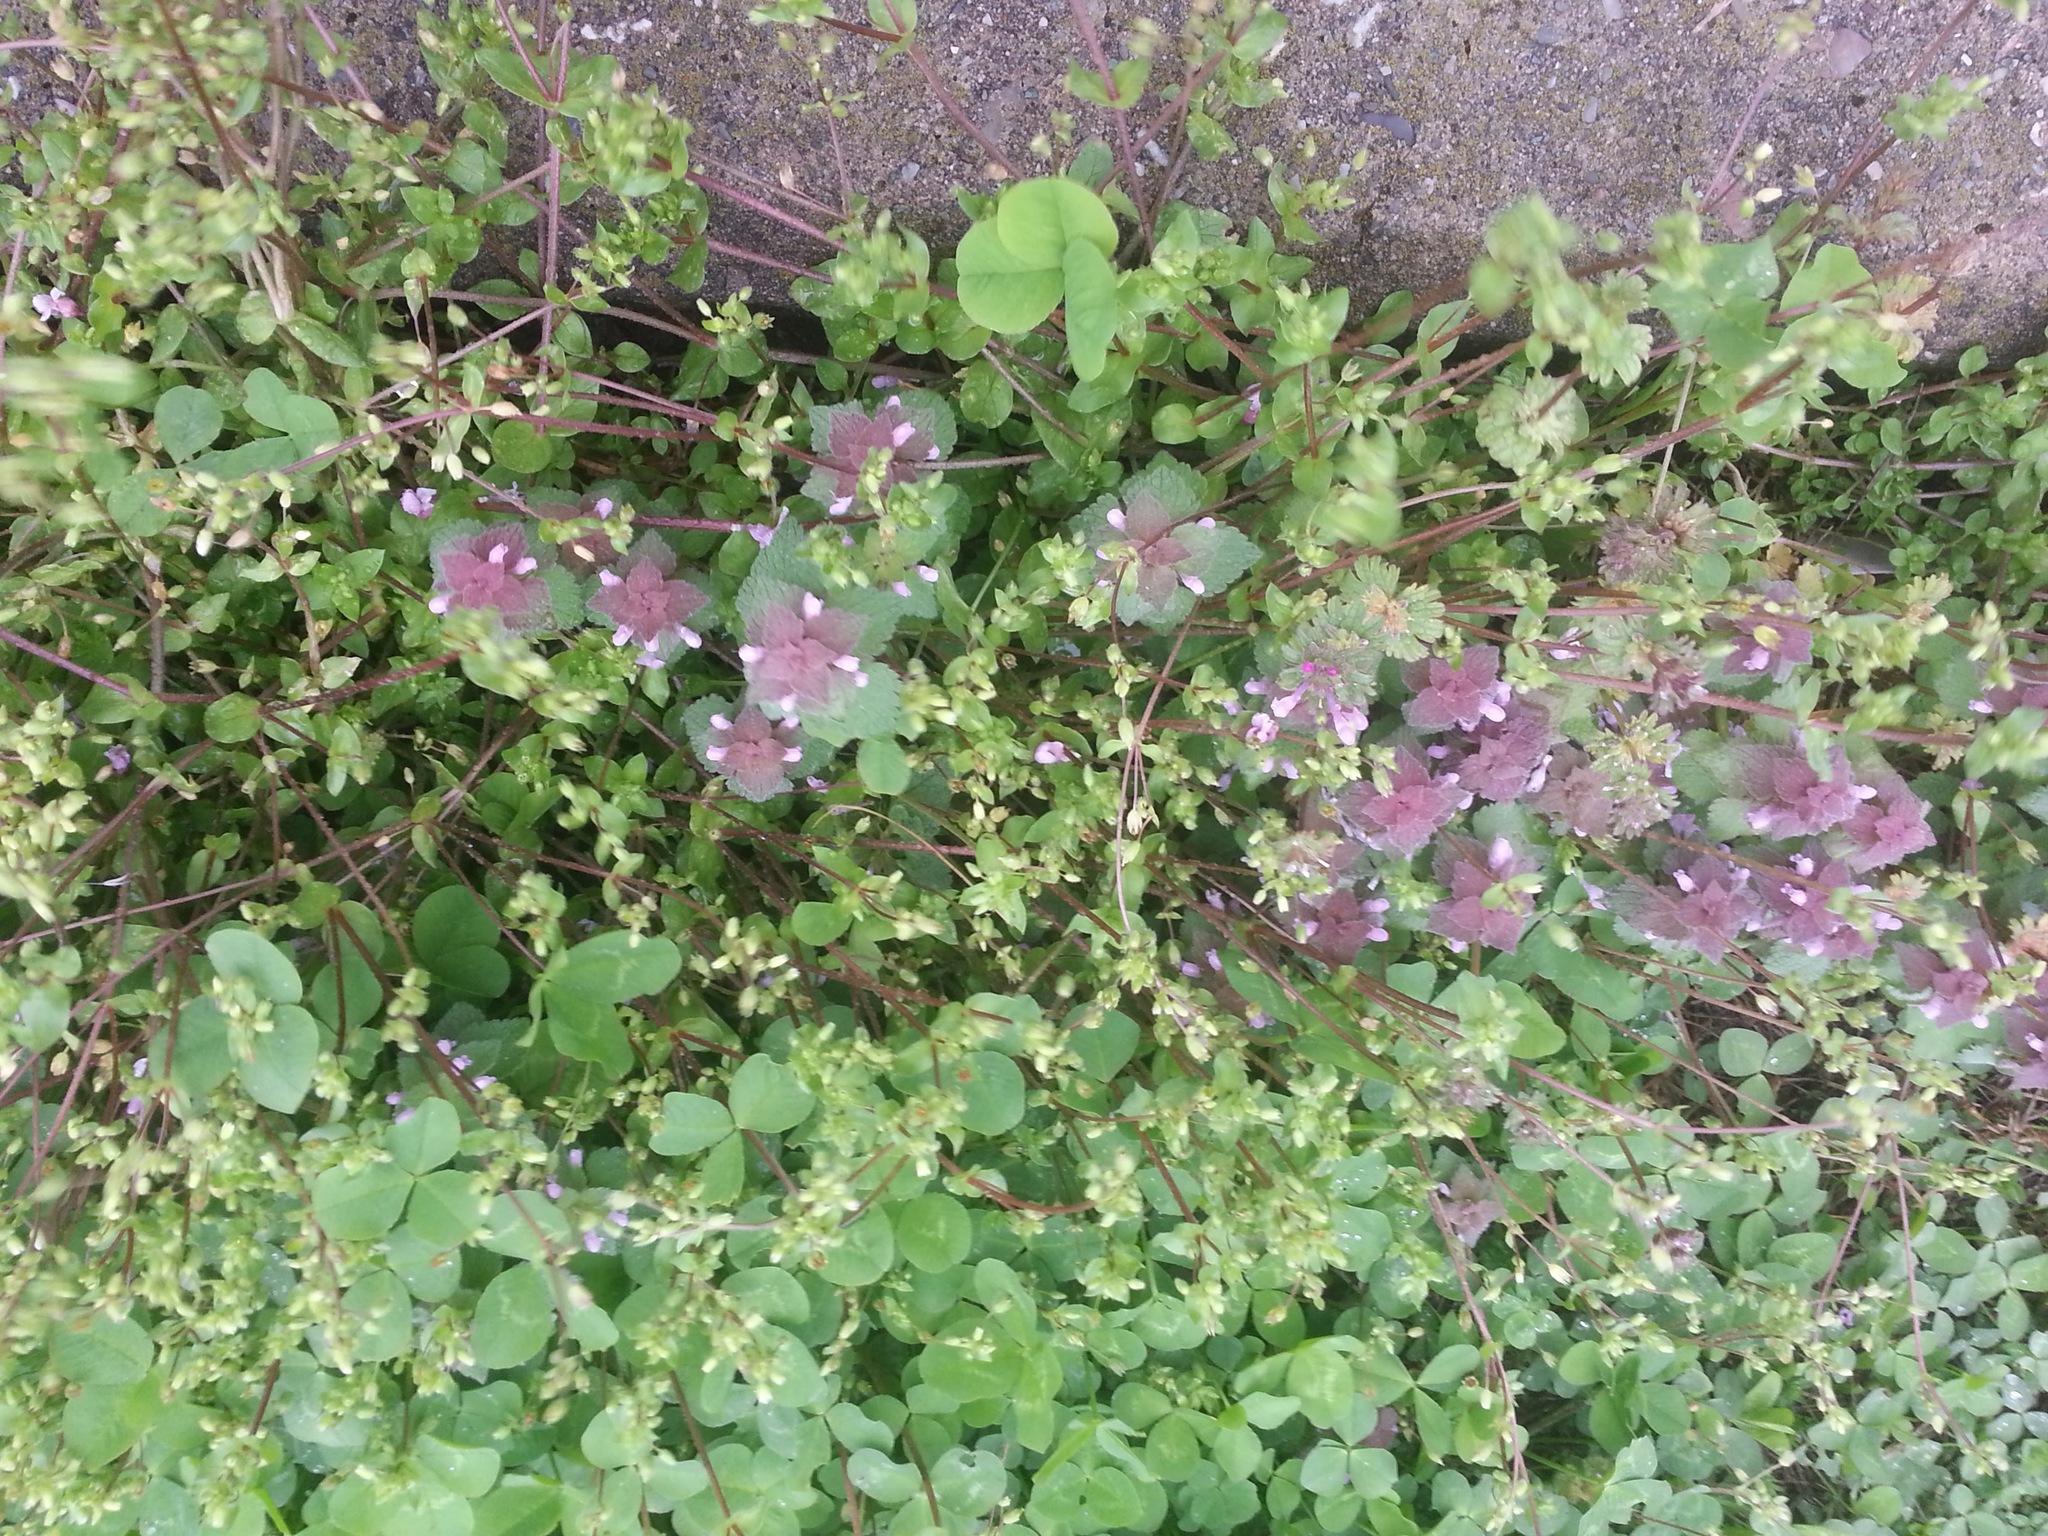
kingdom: Plantae
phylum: Tracheophyta
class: Magnoliopsida
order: Lamiales
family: Lamiaceae
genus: Lamium
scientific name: Lamium purpureum
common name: Red dead-nettle
